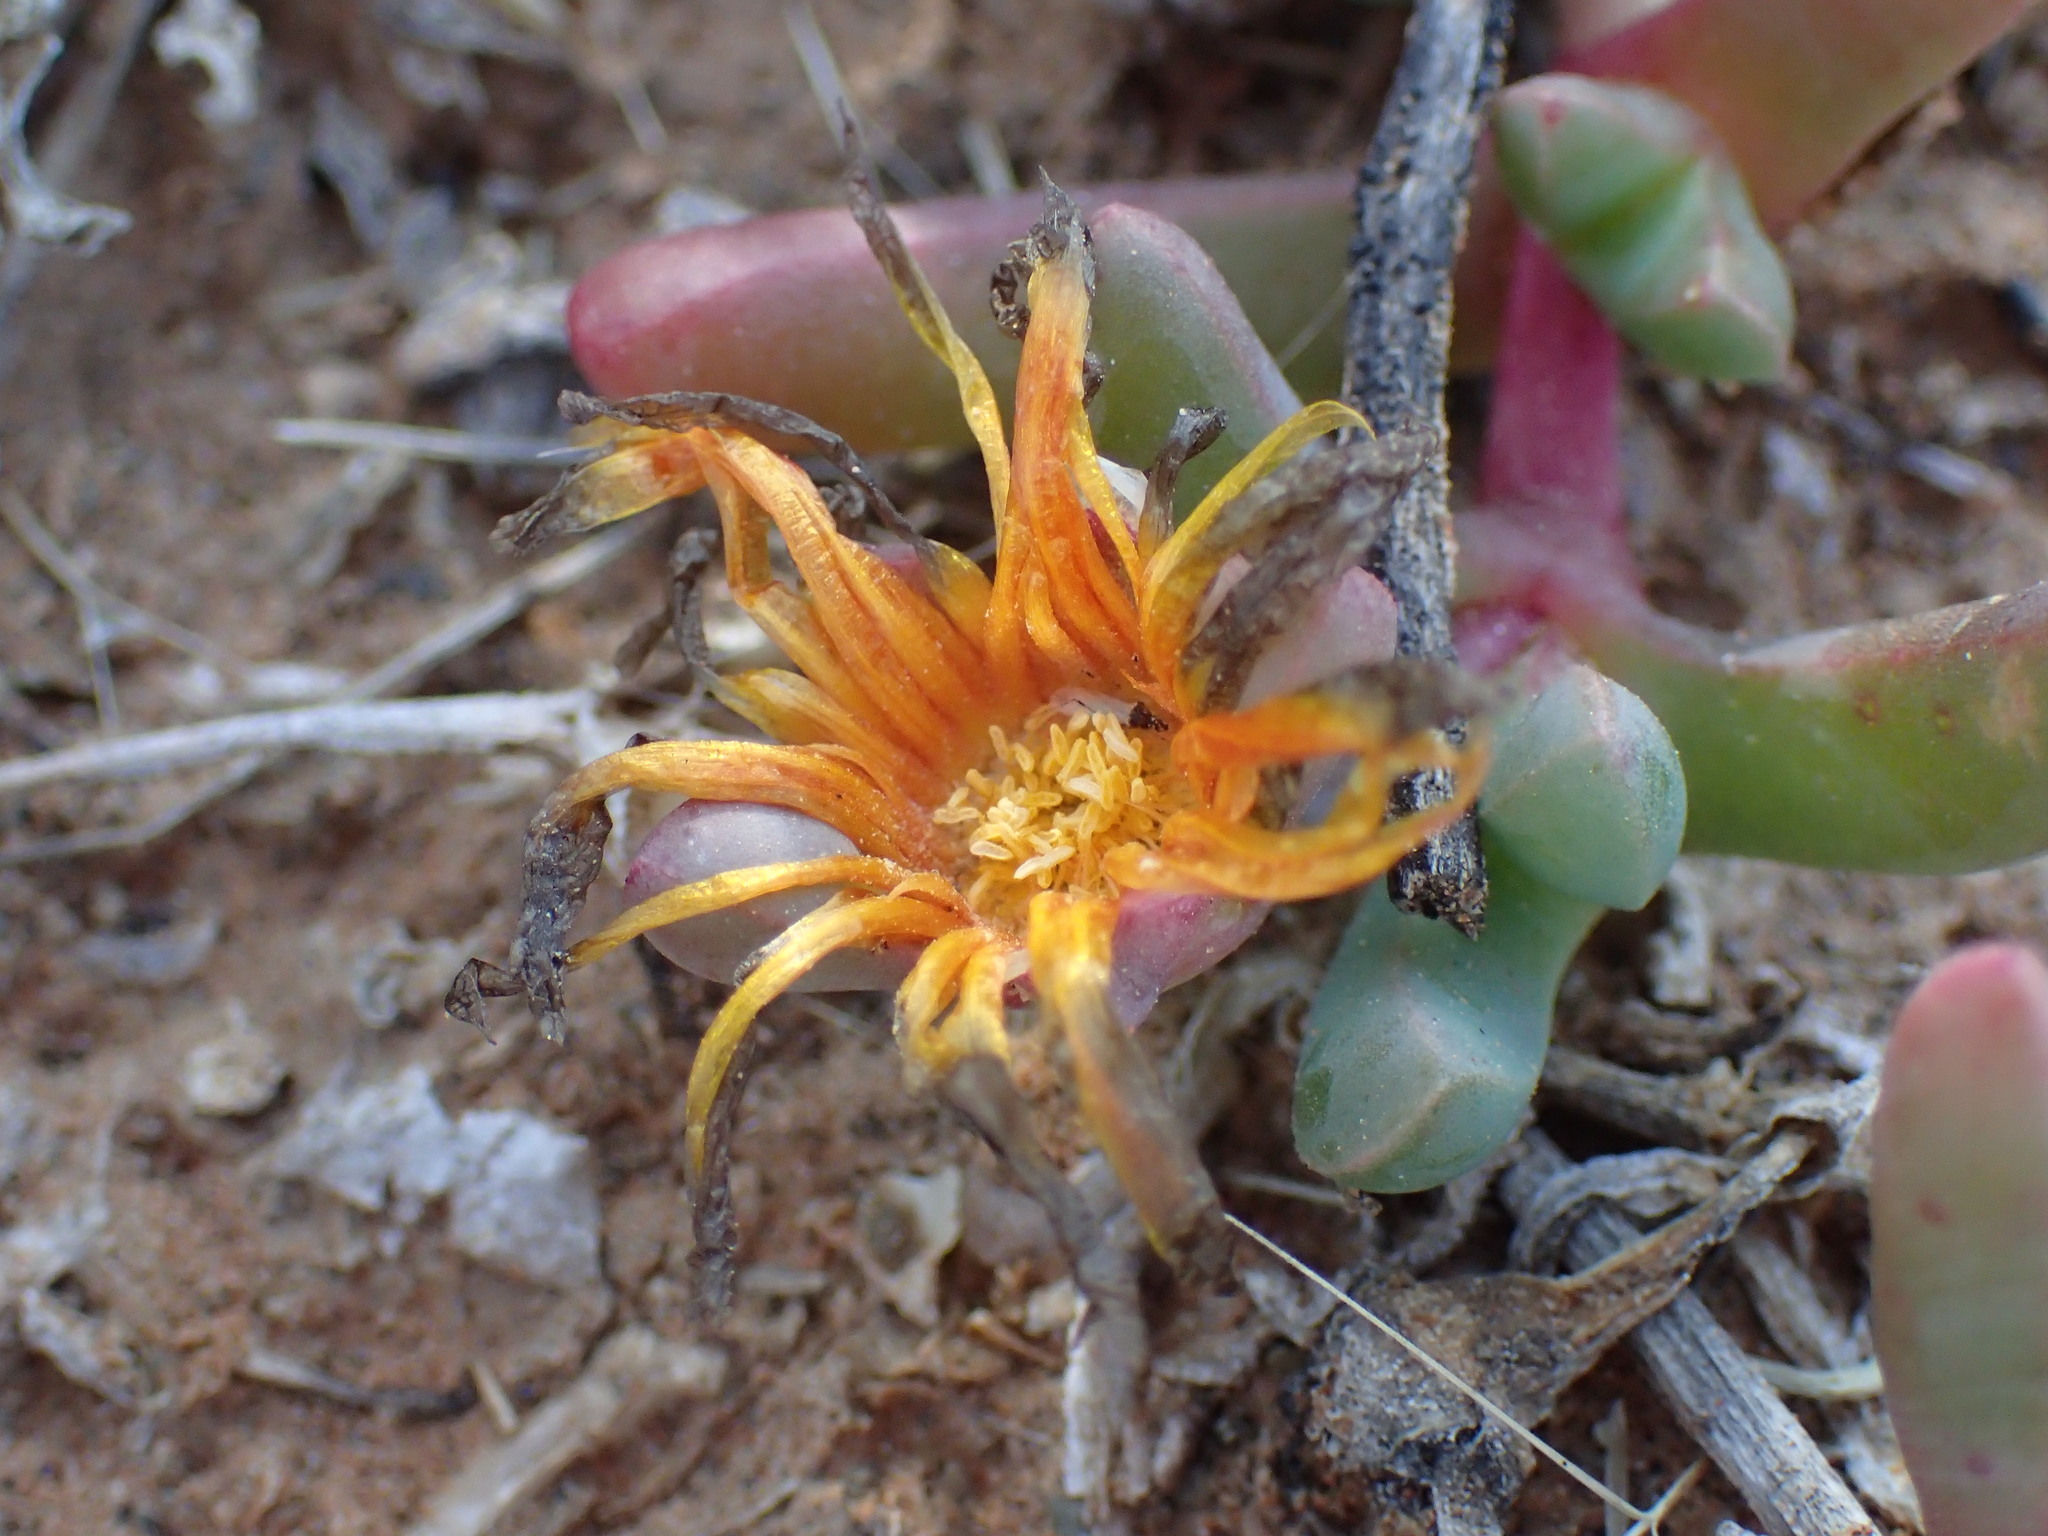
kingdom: Plantae
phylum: Tracheophyta
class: Magnoliopsida
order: Caryophyllales
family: Aizoaceae
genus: Malephora
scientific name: Malephora smithii
